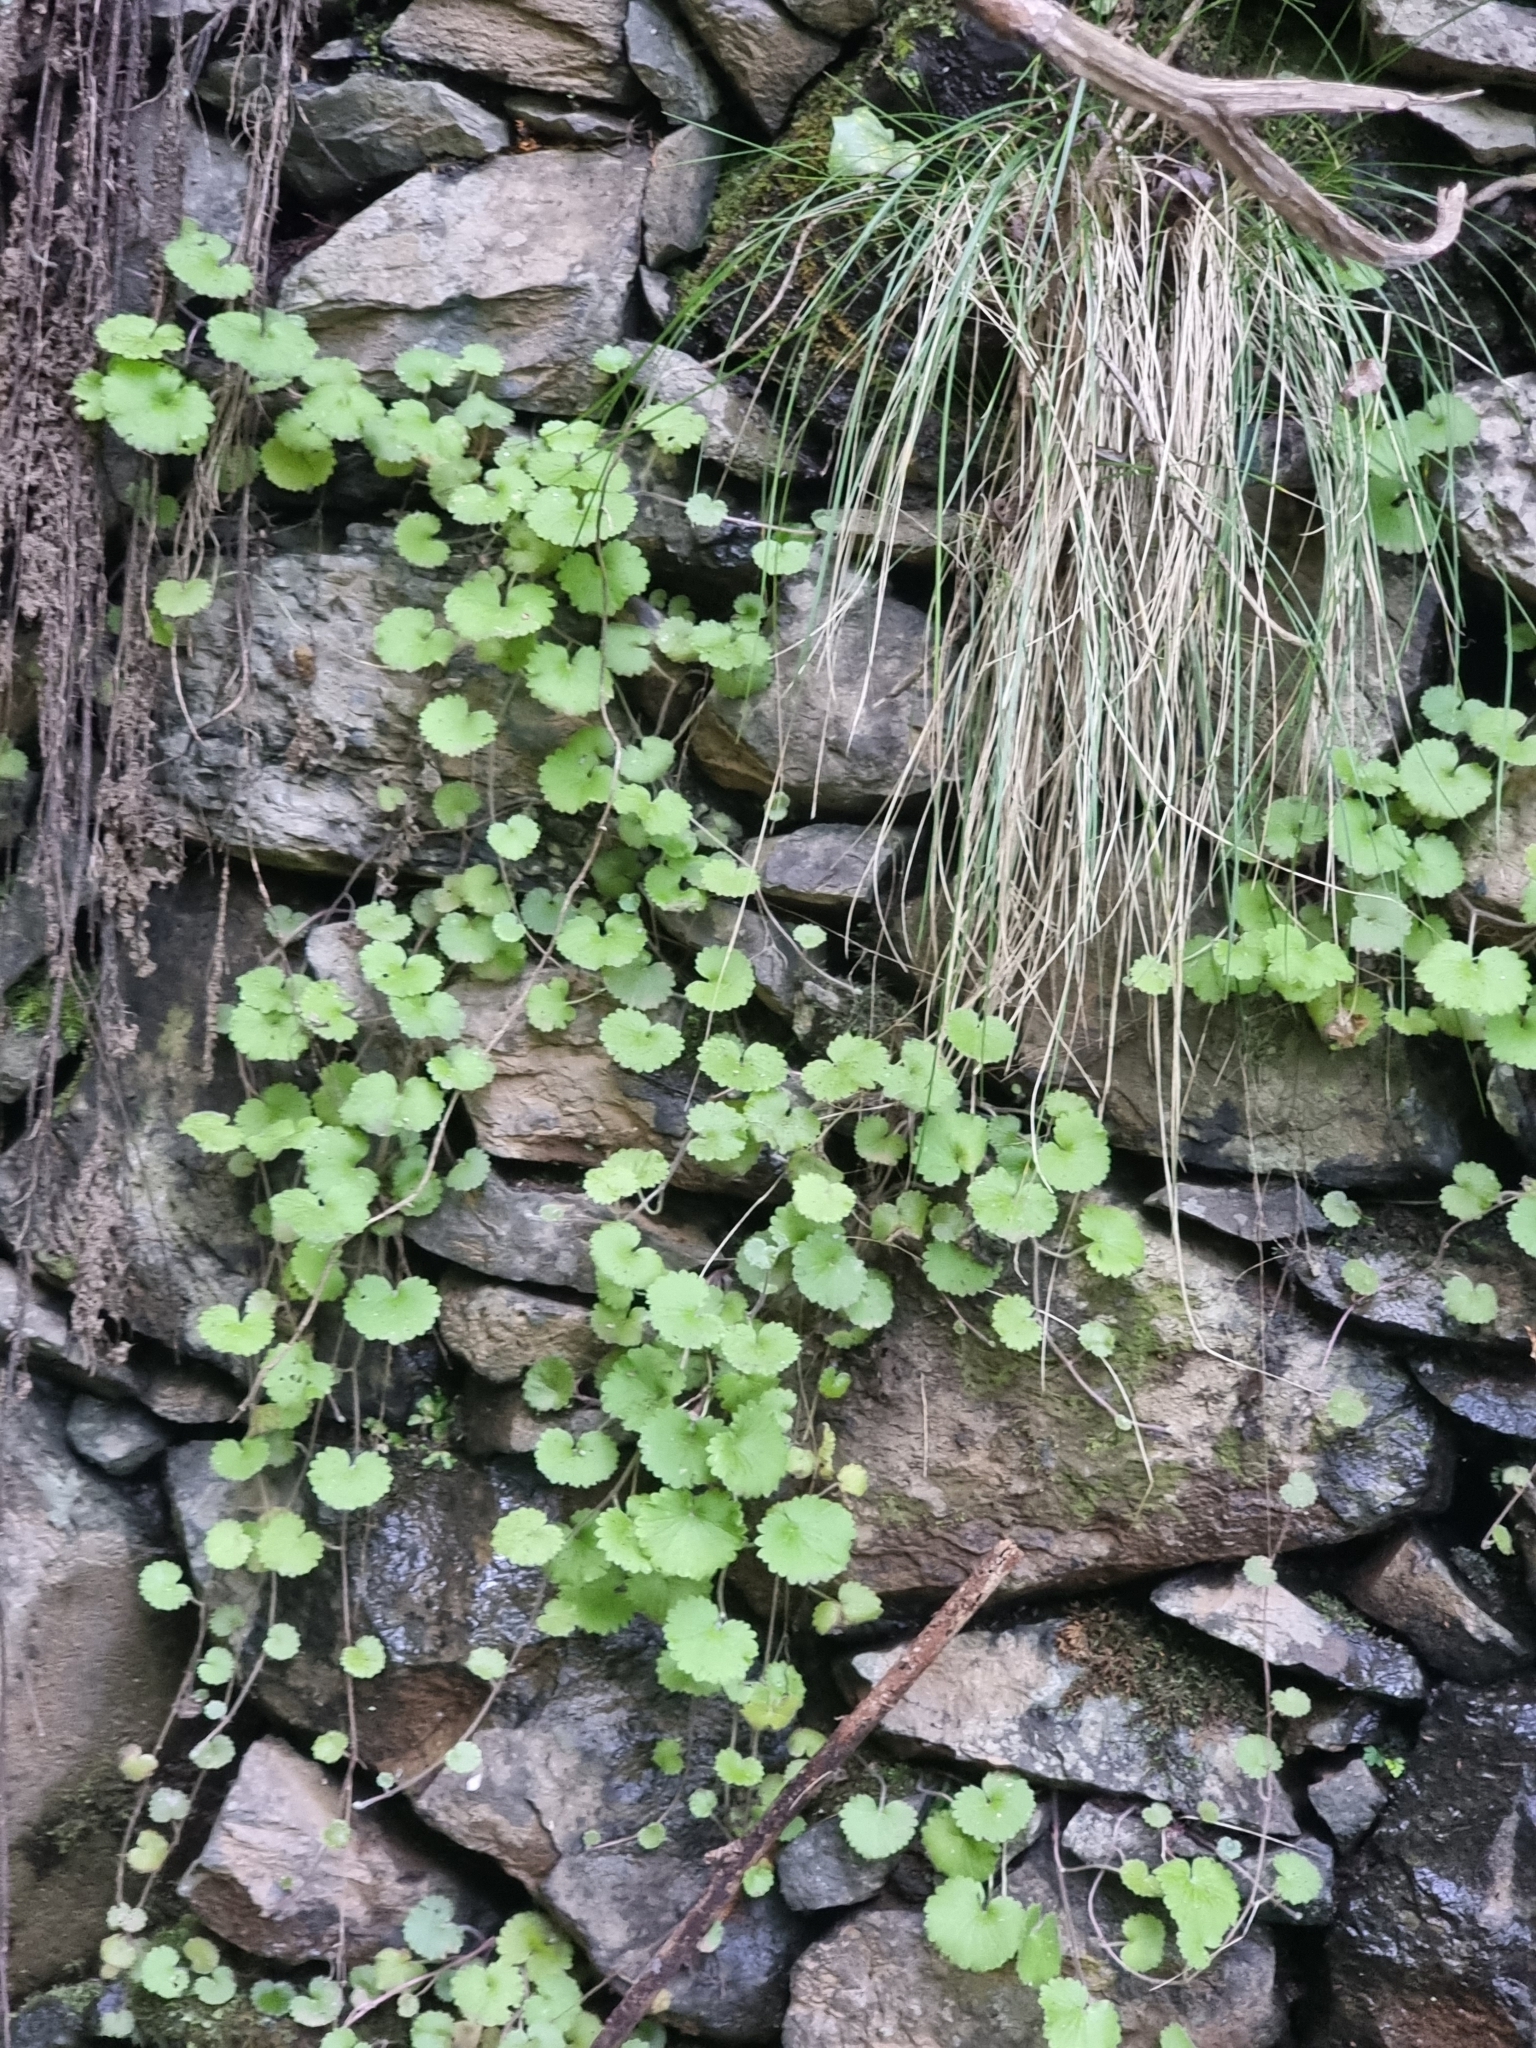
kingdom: Plantae
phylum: Tracheophyta
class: Magnoliopsida
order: Lamiales
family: Plantaginaceae
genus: Sibthorpia
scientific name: Sibthorpia peregrina
